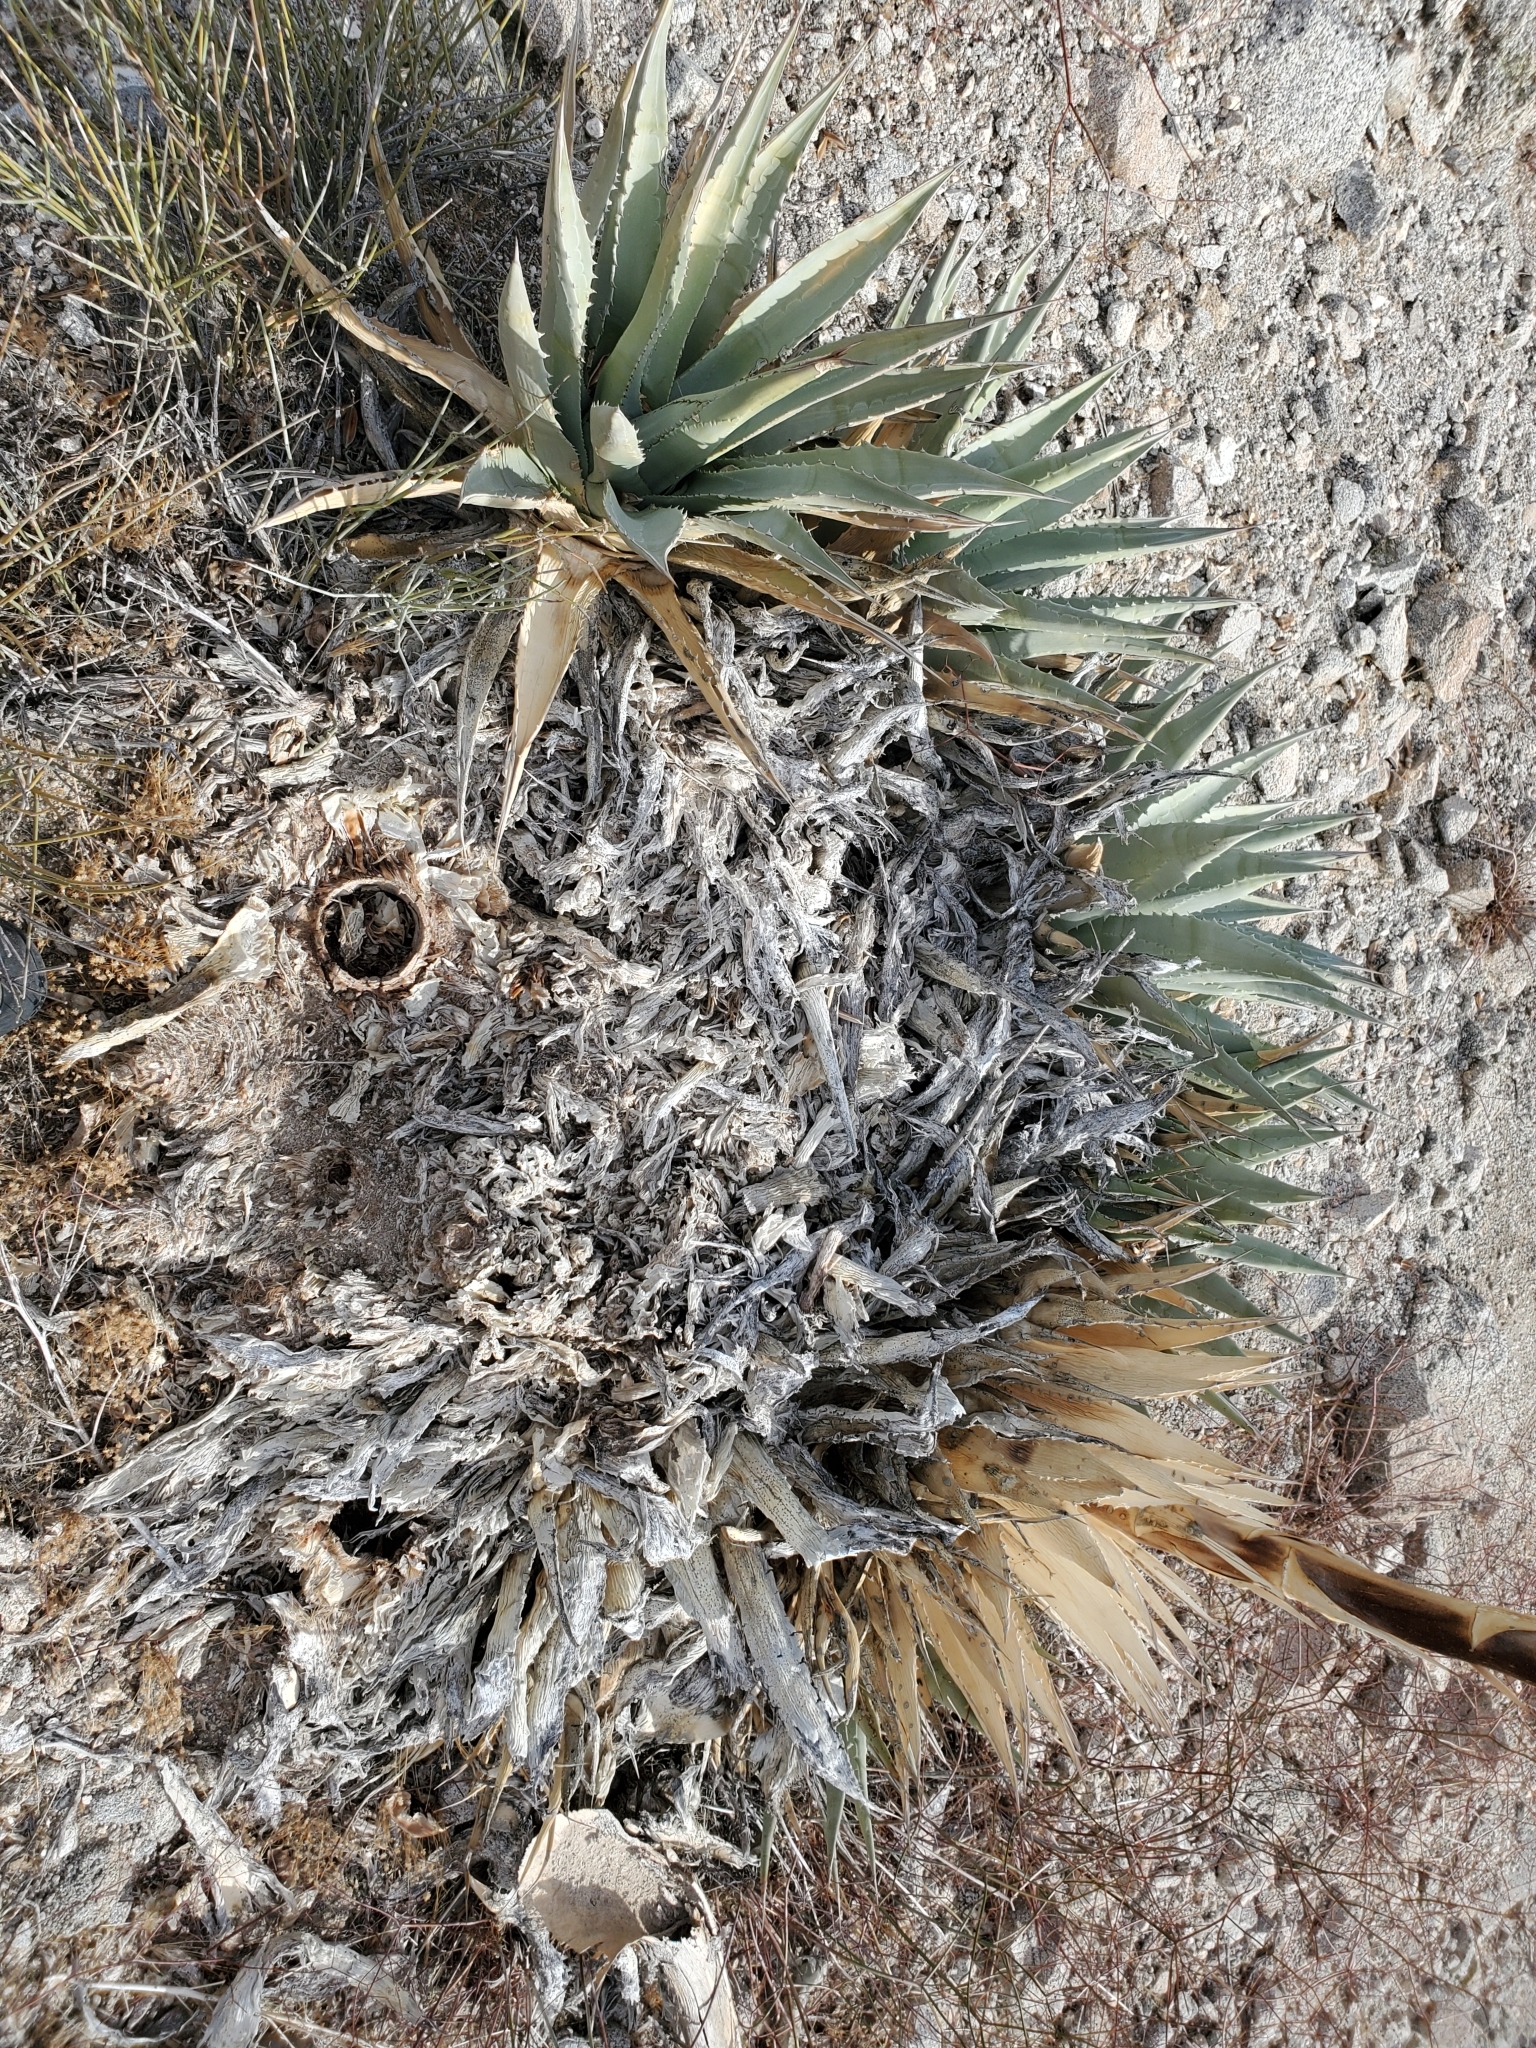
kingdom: Plantae
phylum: Tracheophyta
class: Liliopsida
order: Asparagales
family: Asparagaceae
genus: Agave
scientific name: Agave deserti
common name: Desert agave
